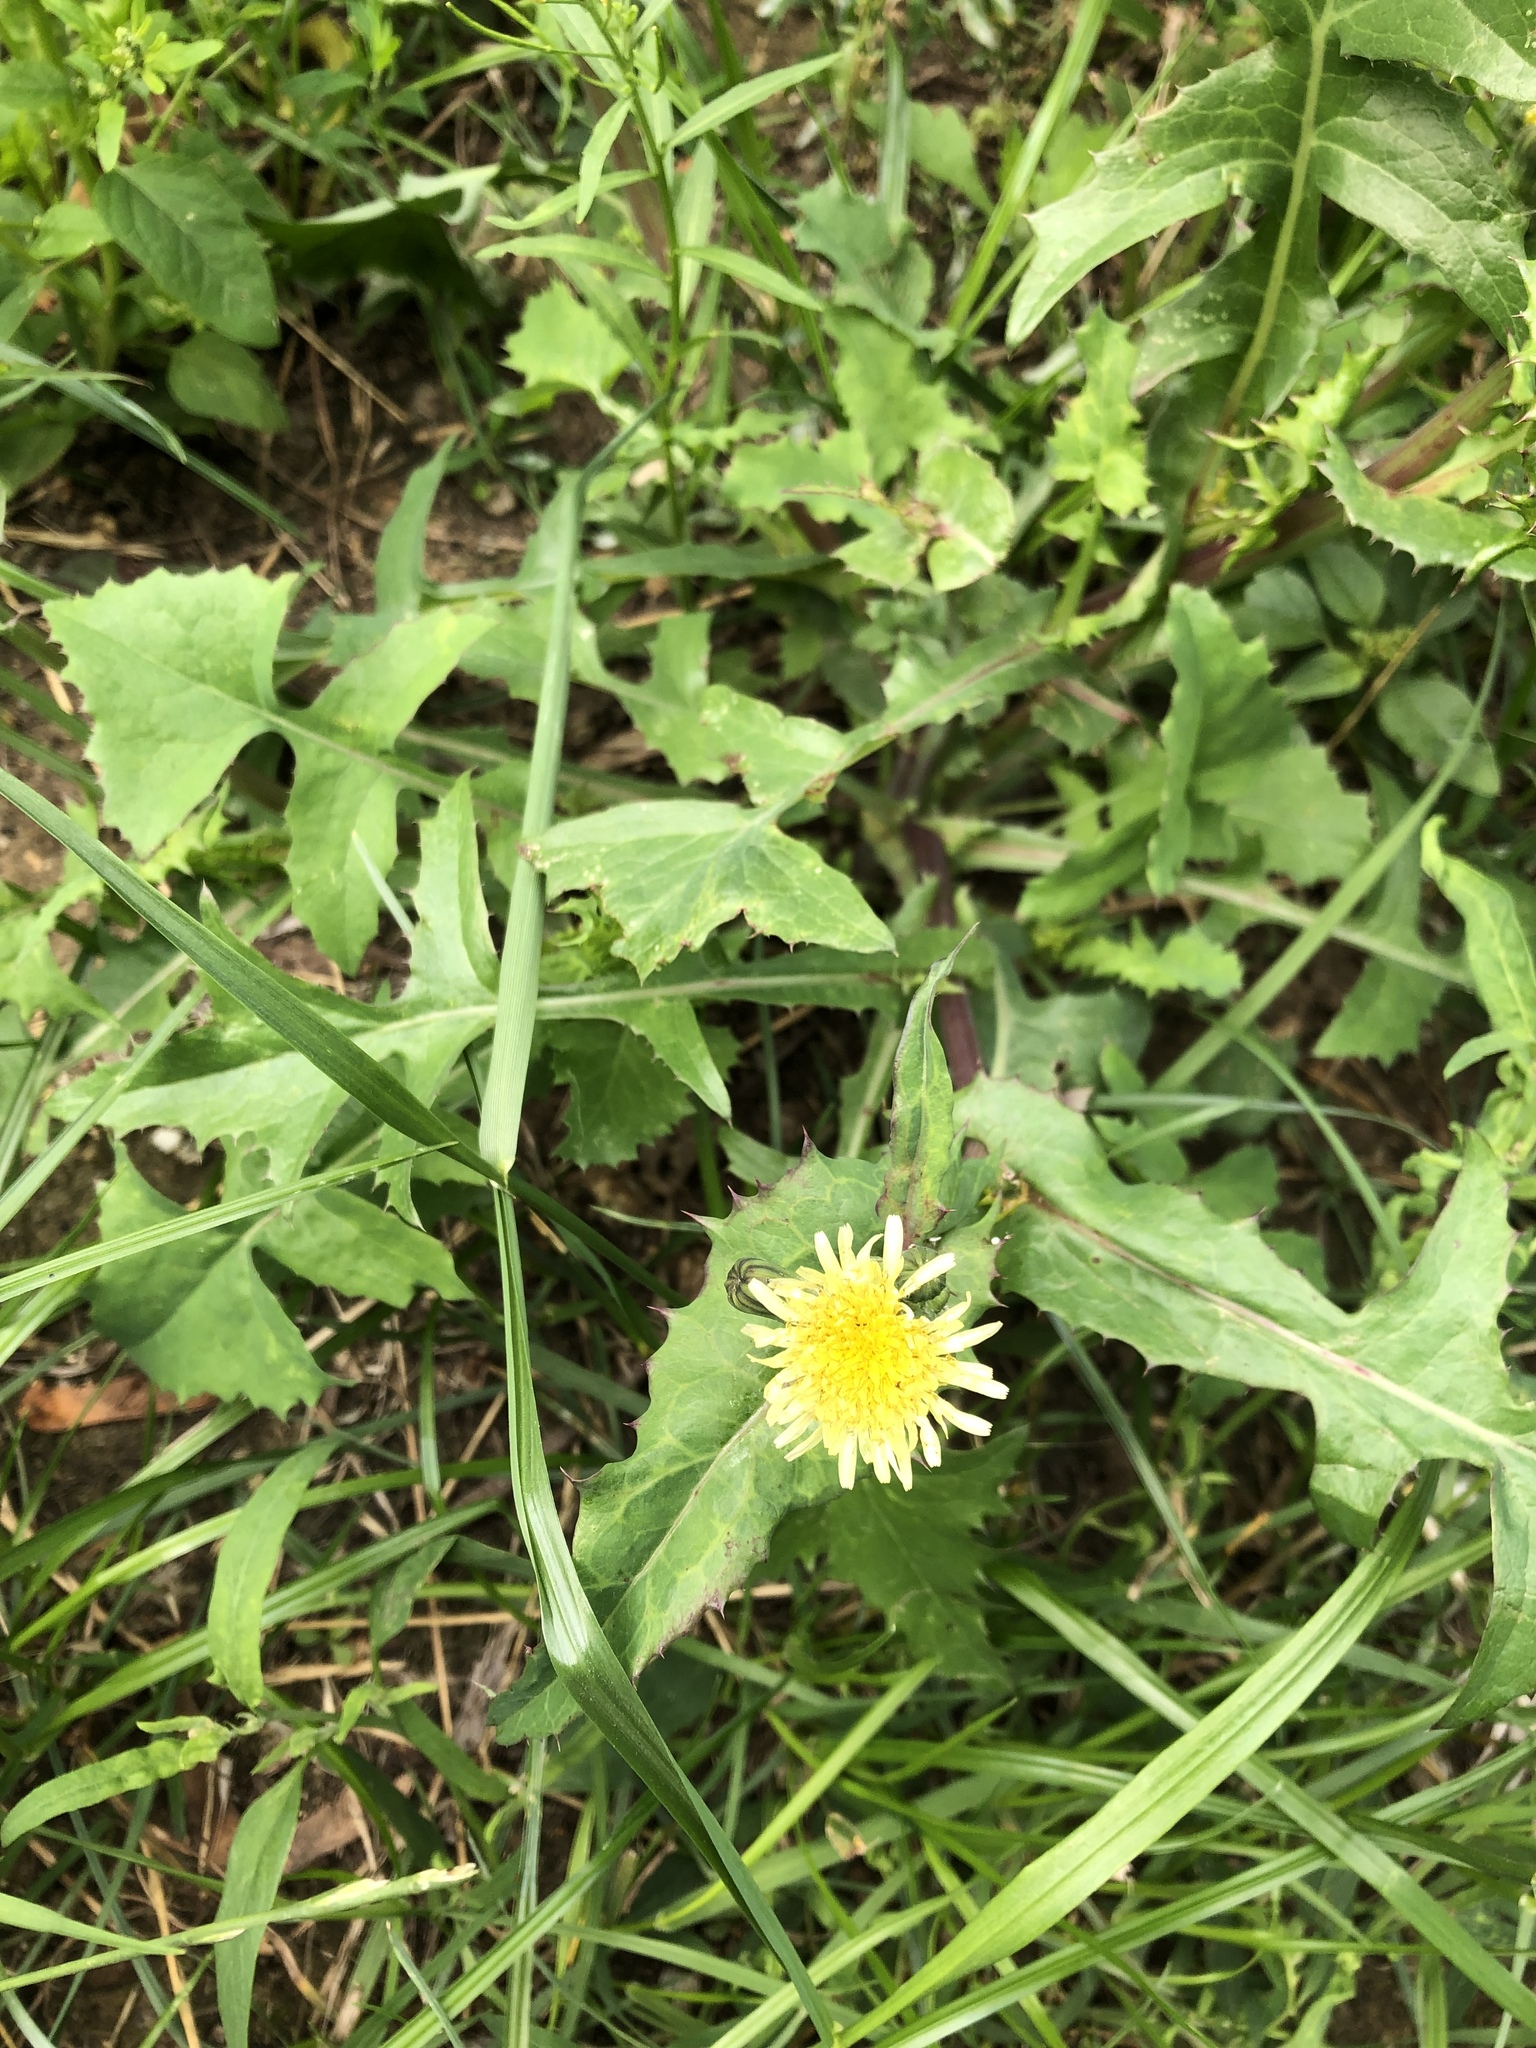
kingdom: Plantae
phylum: Tracheophyta
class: Magnoliopsida
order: Asterales
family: Asteraceae
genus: Sonchus
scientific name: Sonchus oleraceus
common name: Common sowthistle
